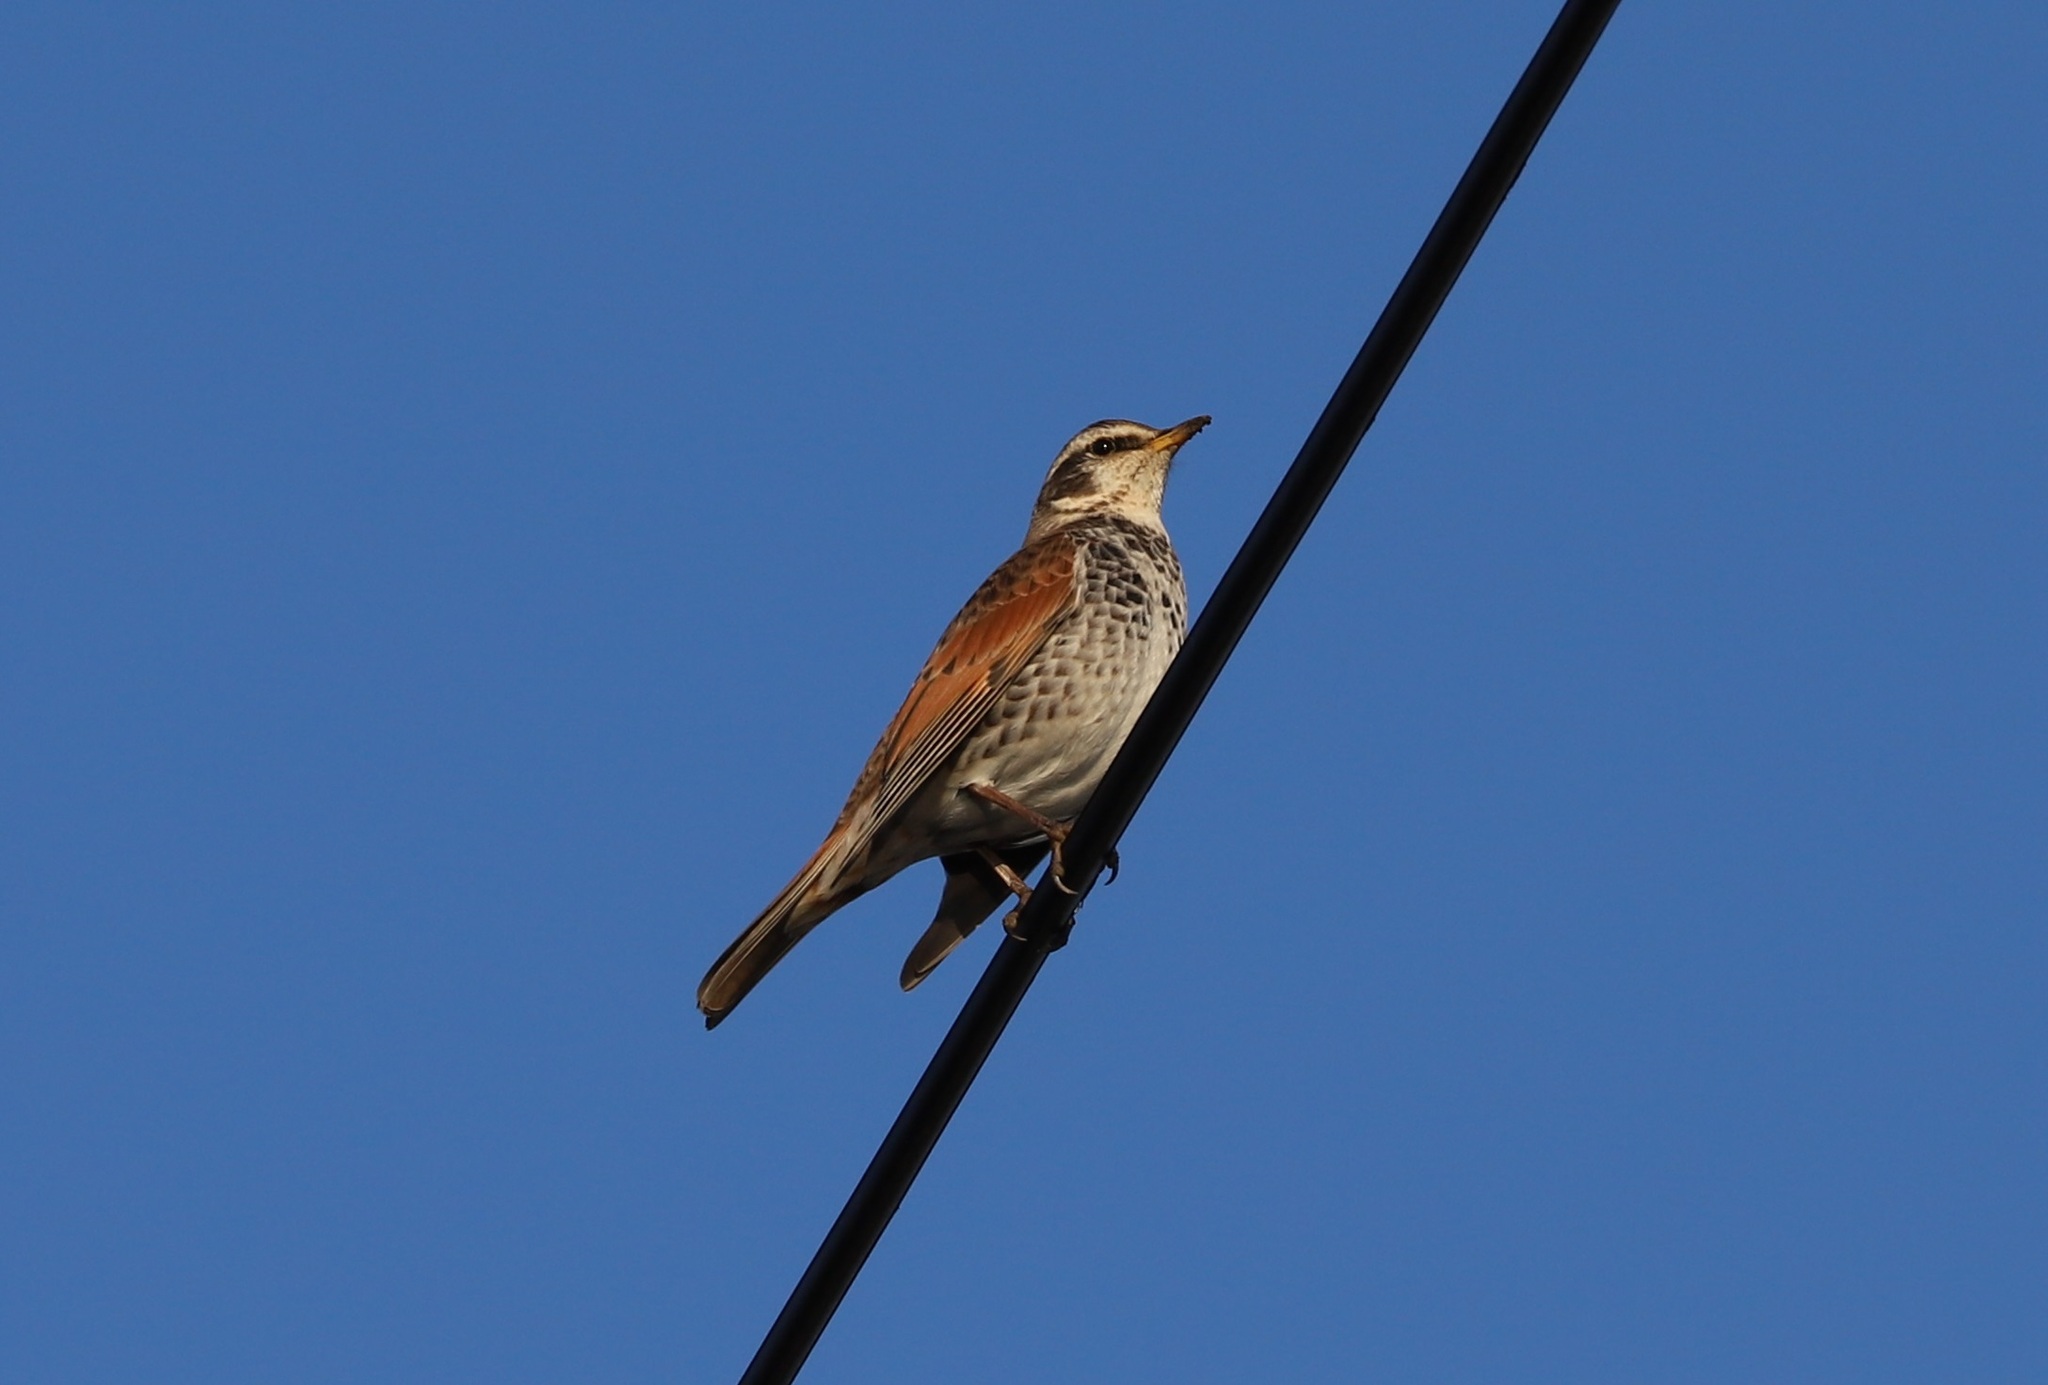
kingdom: Animalia
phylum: Chordata
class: Aves
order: Passeriformes
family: Turdidae
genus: Turdus
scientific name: Turdus eunomus
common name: Dusky thrush
